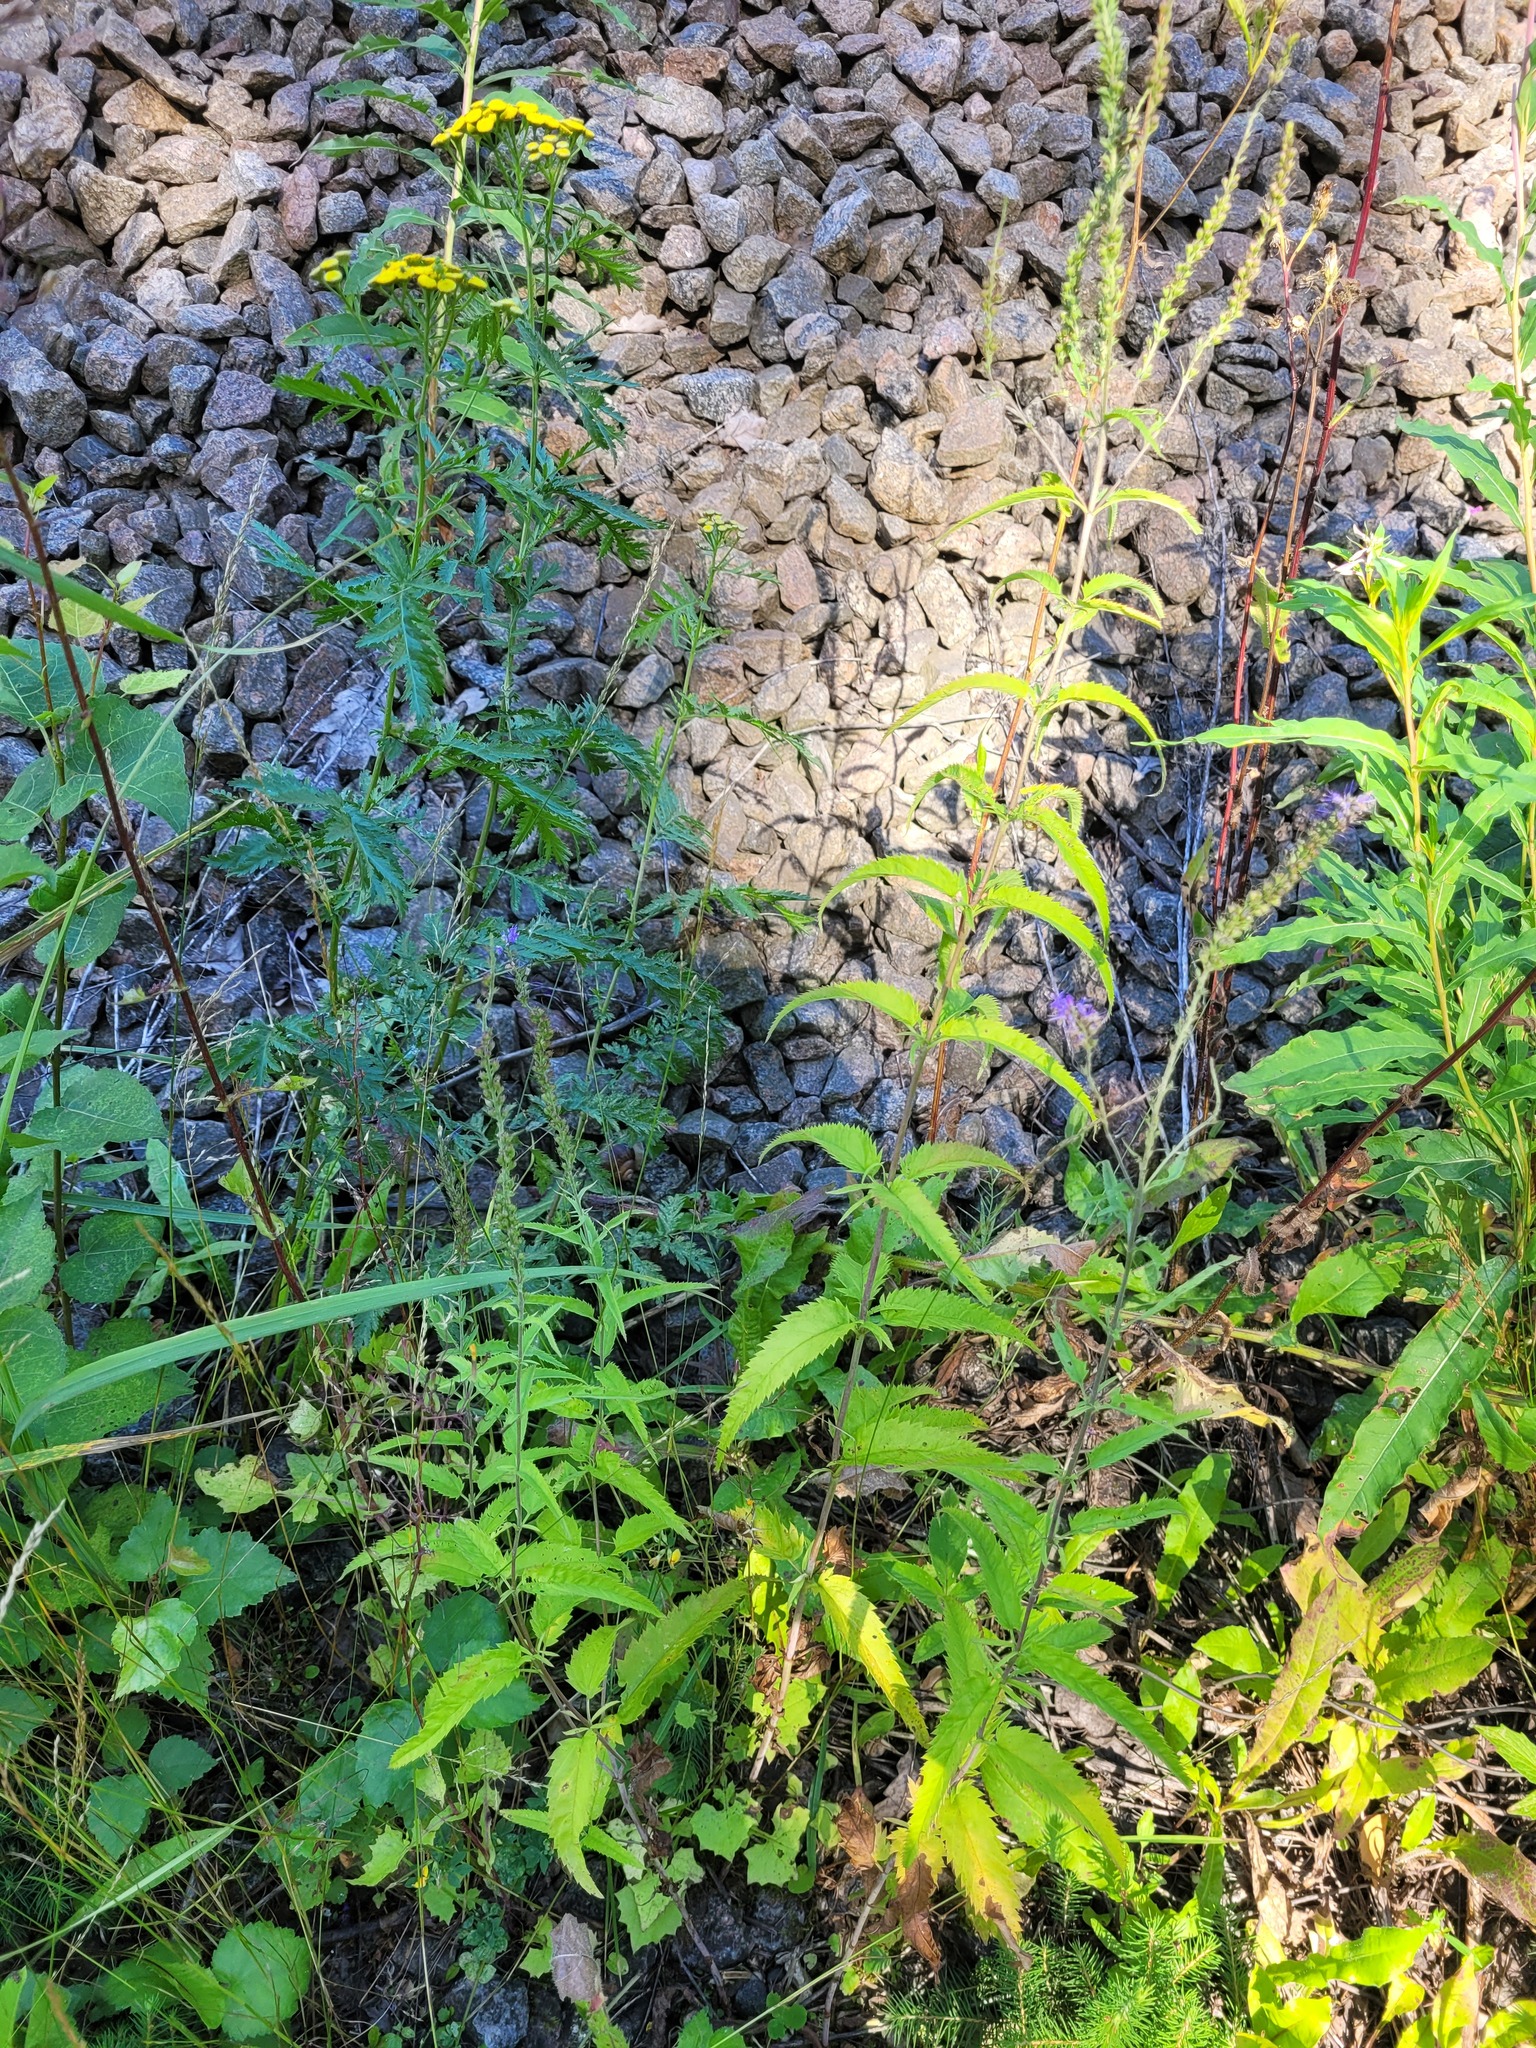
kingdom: Plantae
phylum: Tracheophyta
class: Magnoliopsida
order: Lamiales
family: Plantaginaceae
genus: Veronica
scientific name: Veronica longifolia
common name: Garden speedwell
